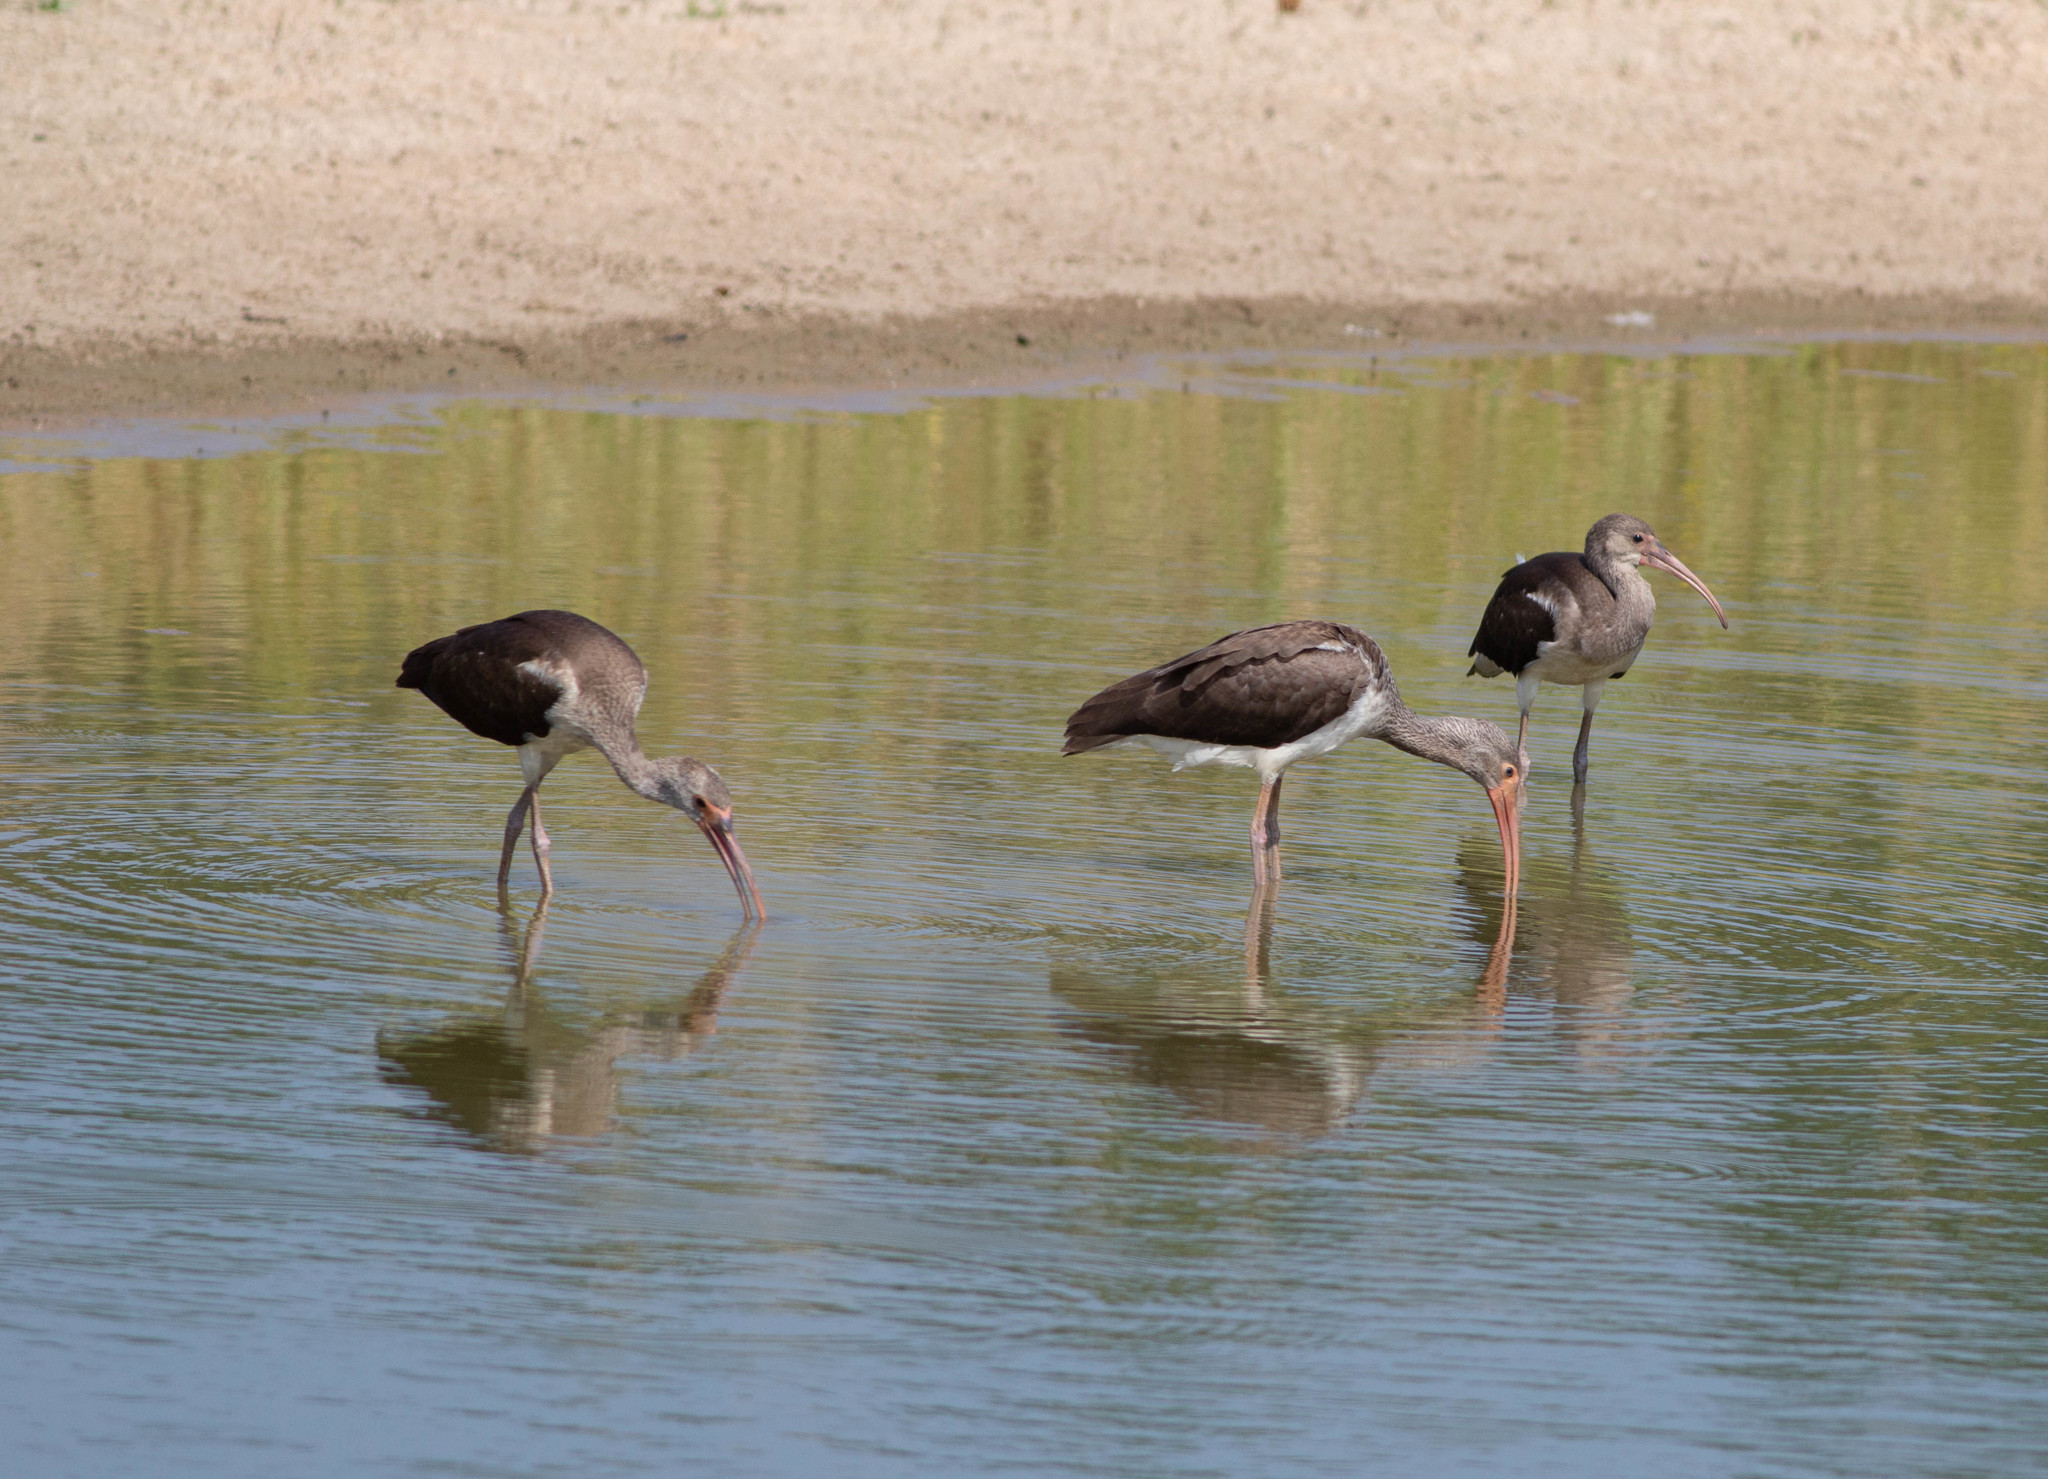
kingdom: Animalia
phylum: Chordata
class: Aves
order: Pelecaniformes
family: Threskiornithidae
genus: Eudocimus
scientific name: Eudocimus albus
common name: White ibis
